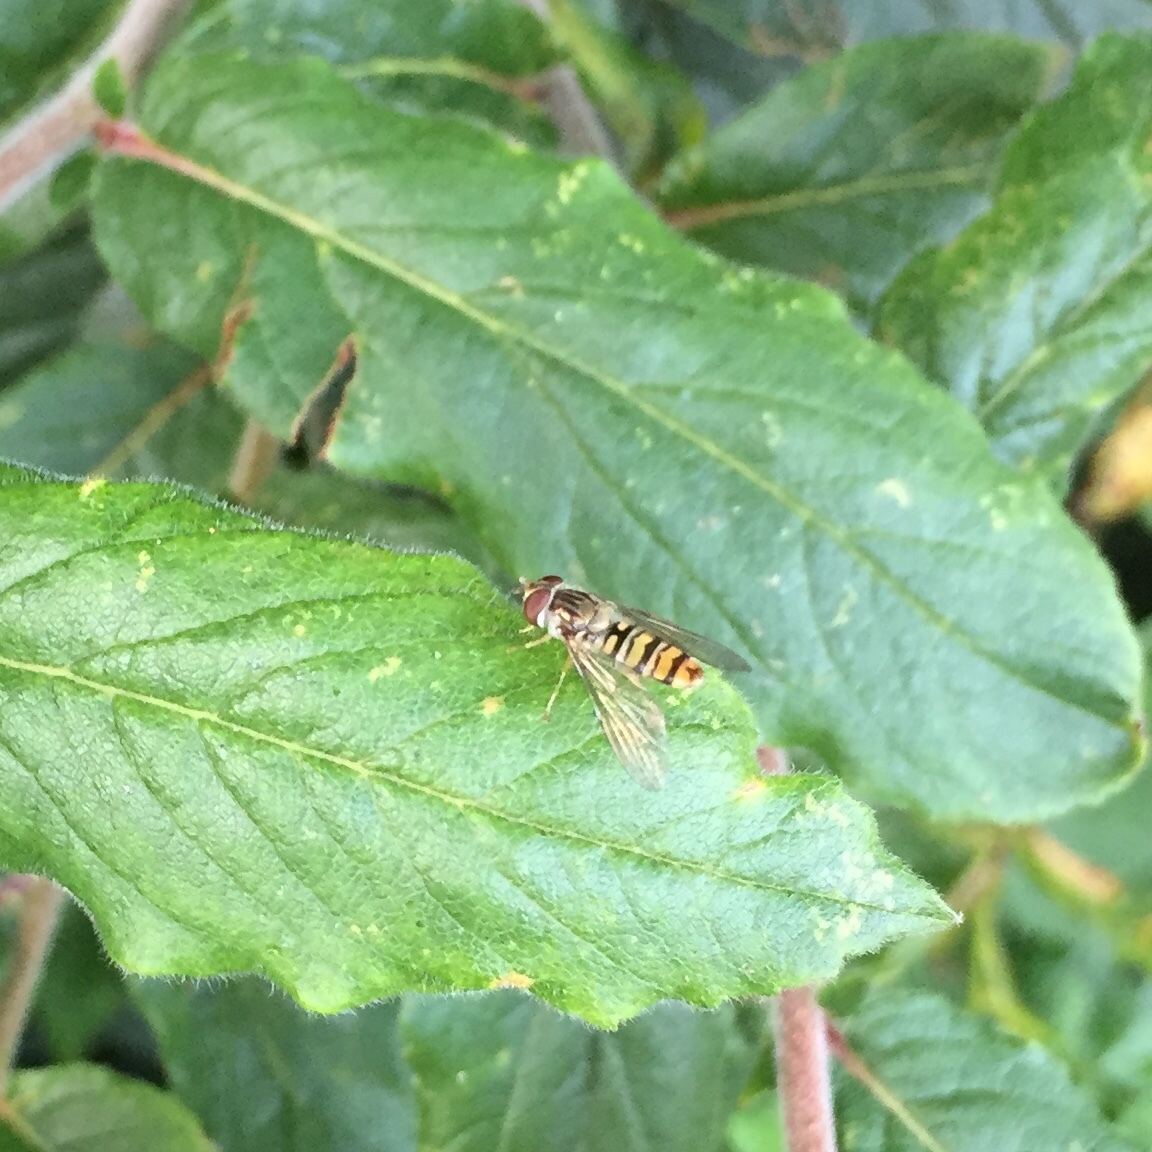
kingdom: Animalia
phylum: Arthropoda
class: Insecta
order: Diptera
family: Syrphidae
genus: Episyrphus
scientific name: Episyrphus balteatus
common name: Marmalade hoverfly
